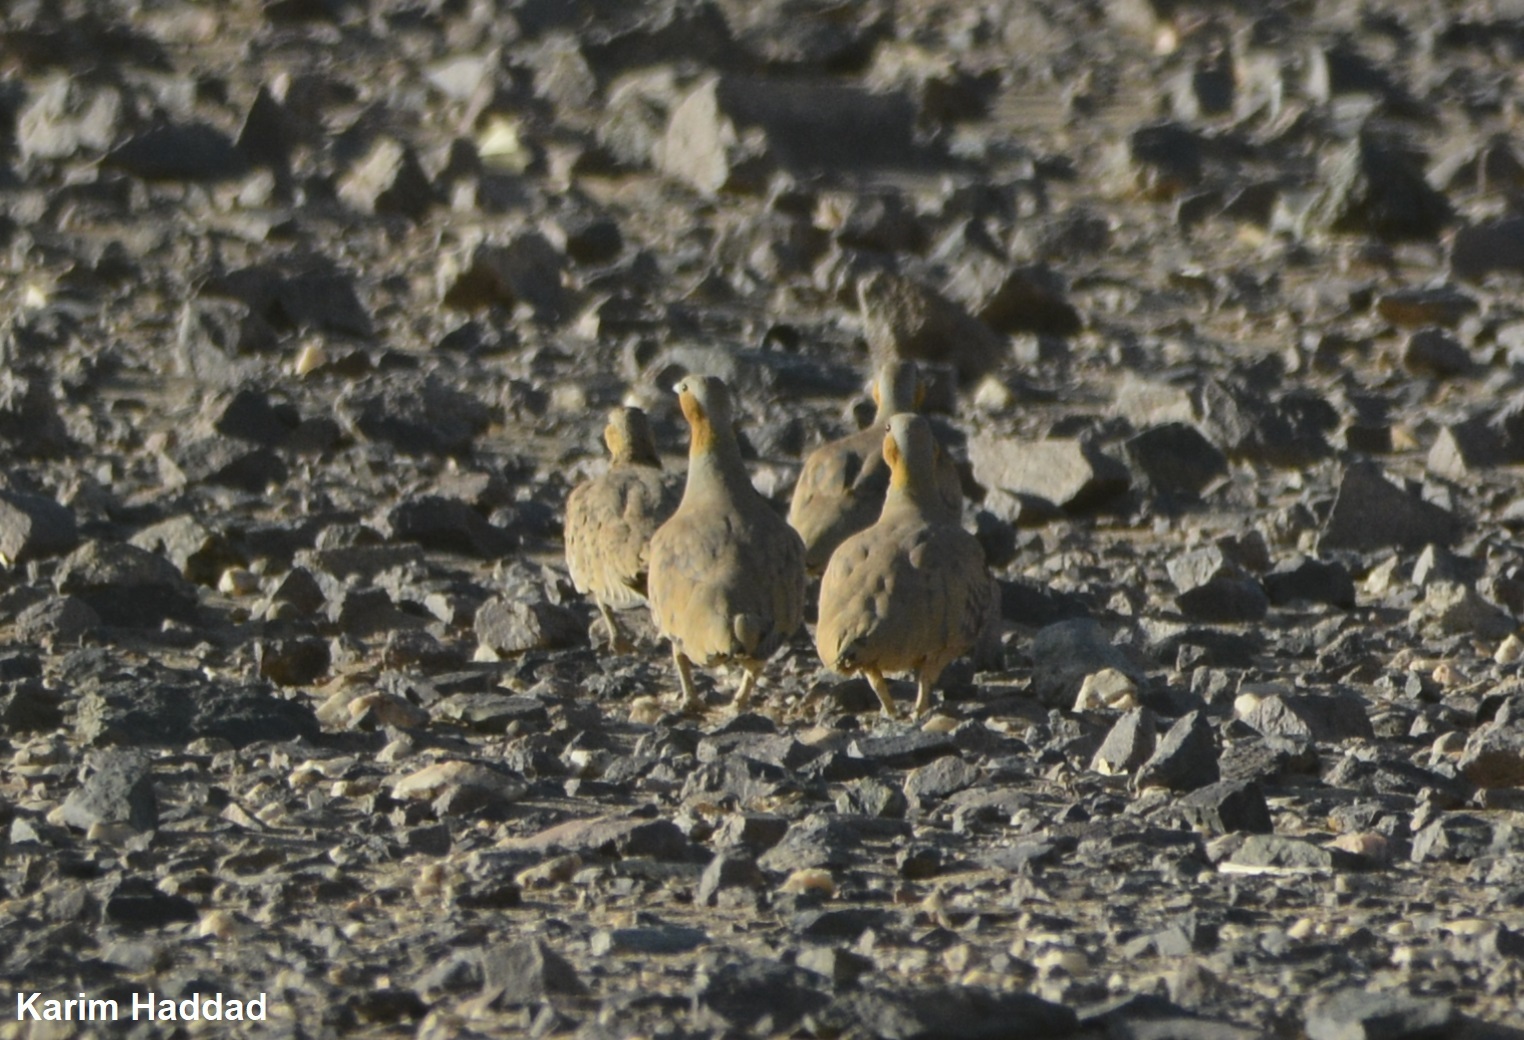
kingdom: Animalia
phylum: Chordata
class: Aves
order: Pteroclidiformes
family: Pteroclididae
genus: Pterocles
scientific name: Pterocles senegallus
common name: Spotted sandgrouse
